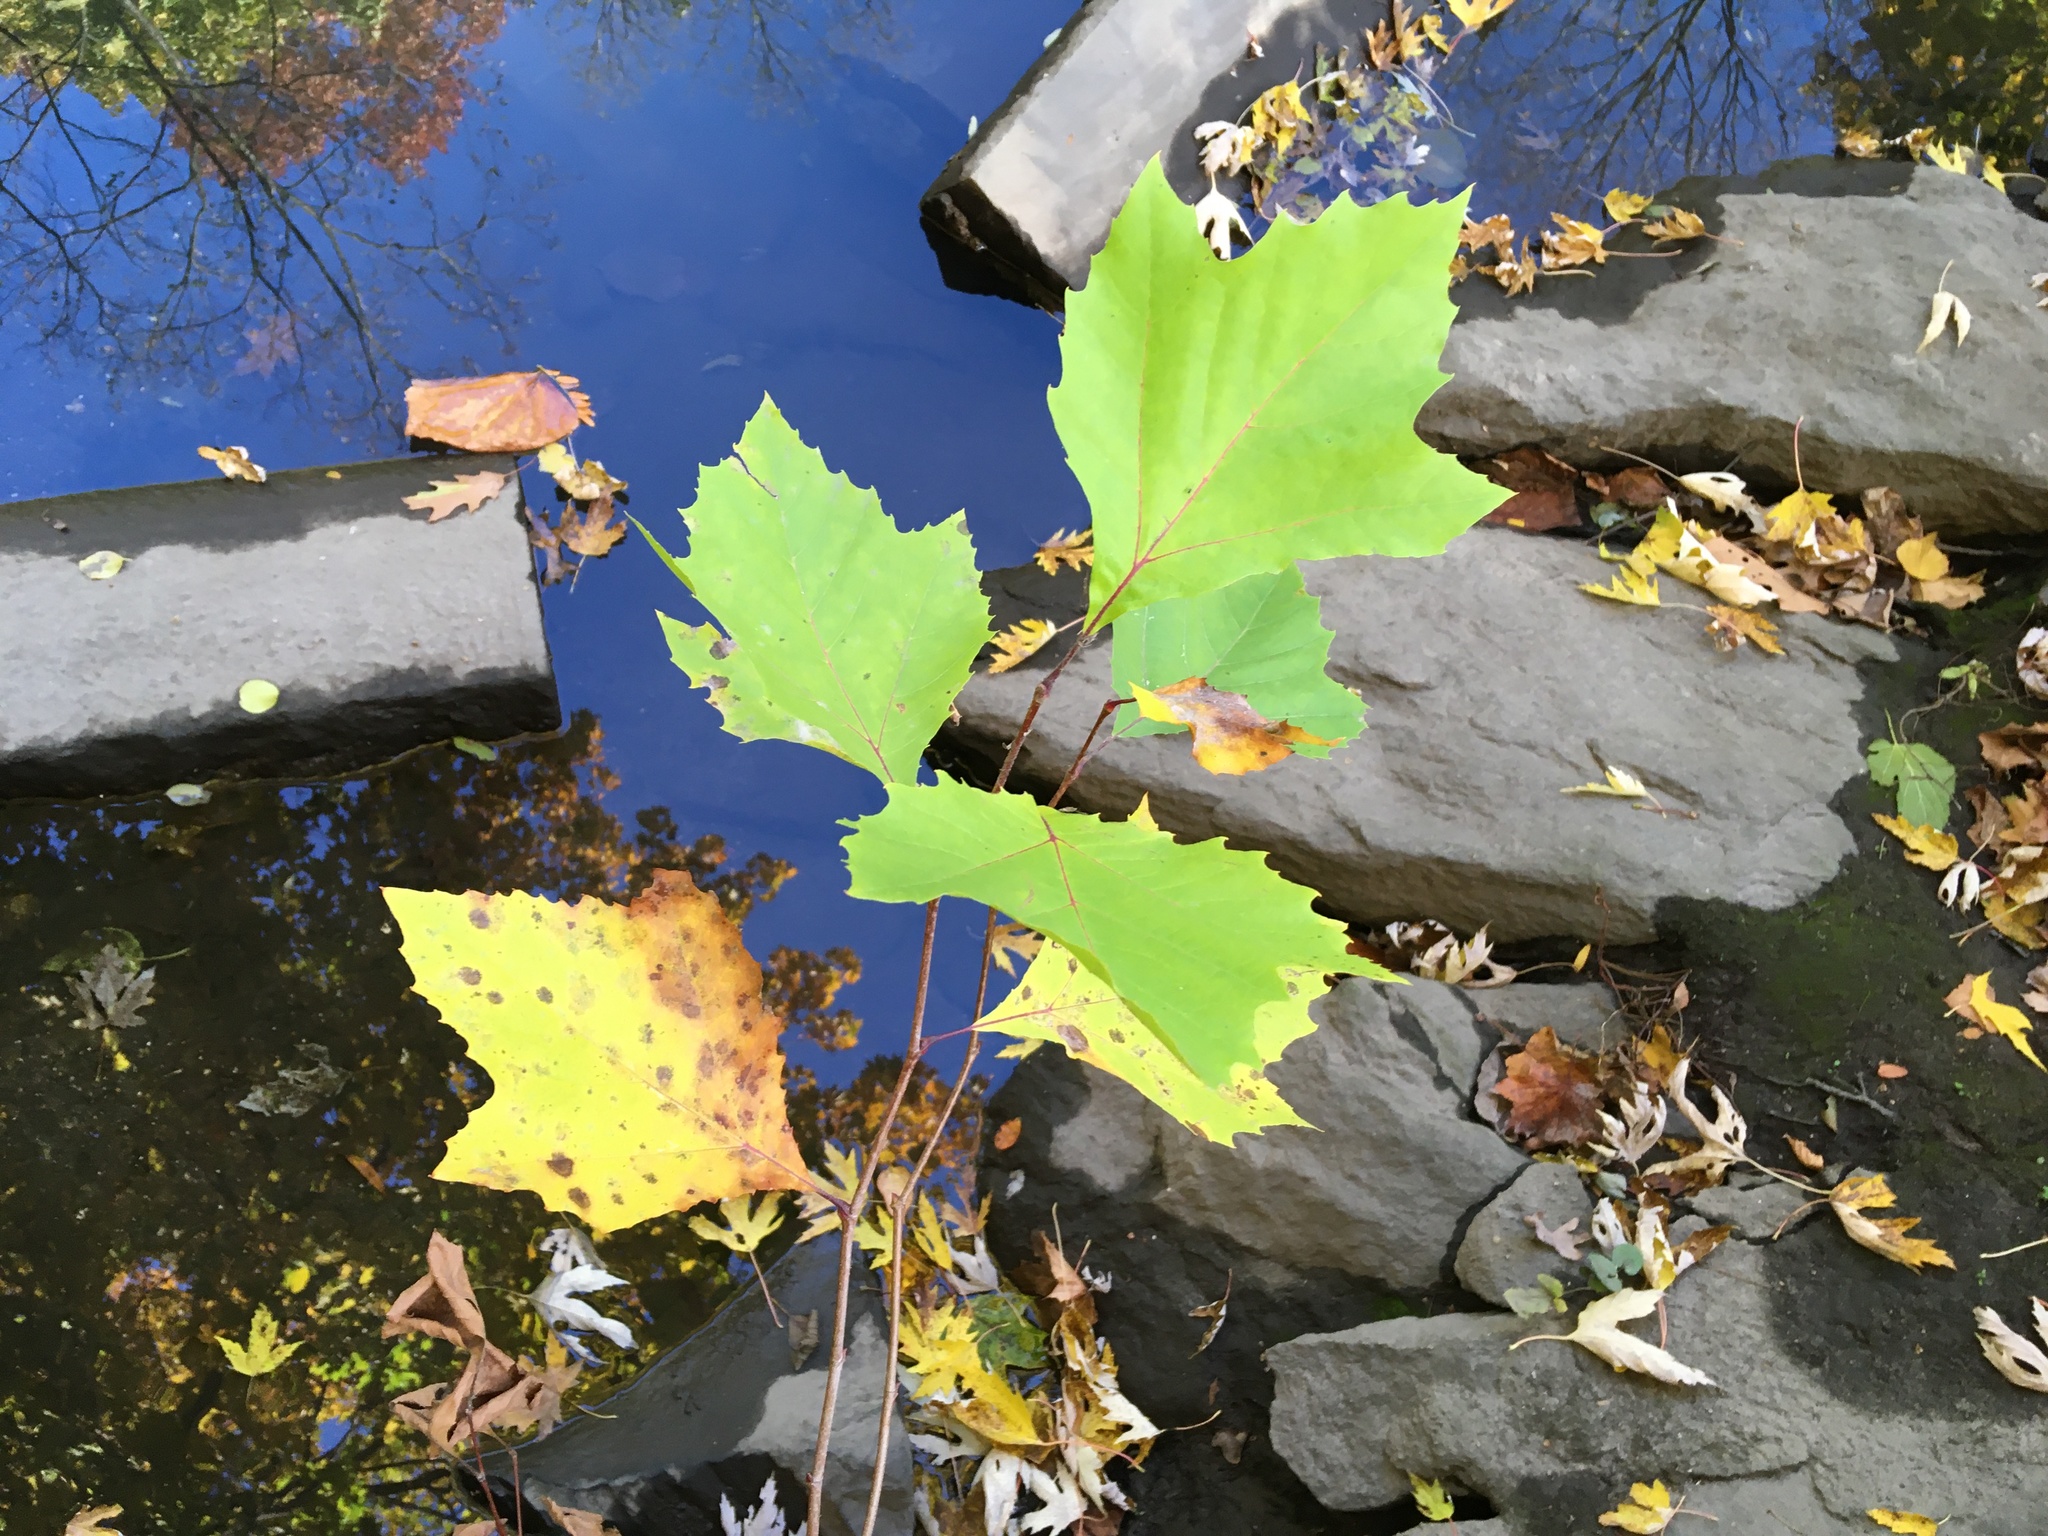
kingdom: Plantae
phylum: Tracheophyta
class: Magnoliopsida
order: Proteales
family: Platanaceae
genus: Platanus
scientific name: Platanus occidentalis
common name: American sycamore
